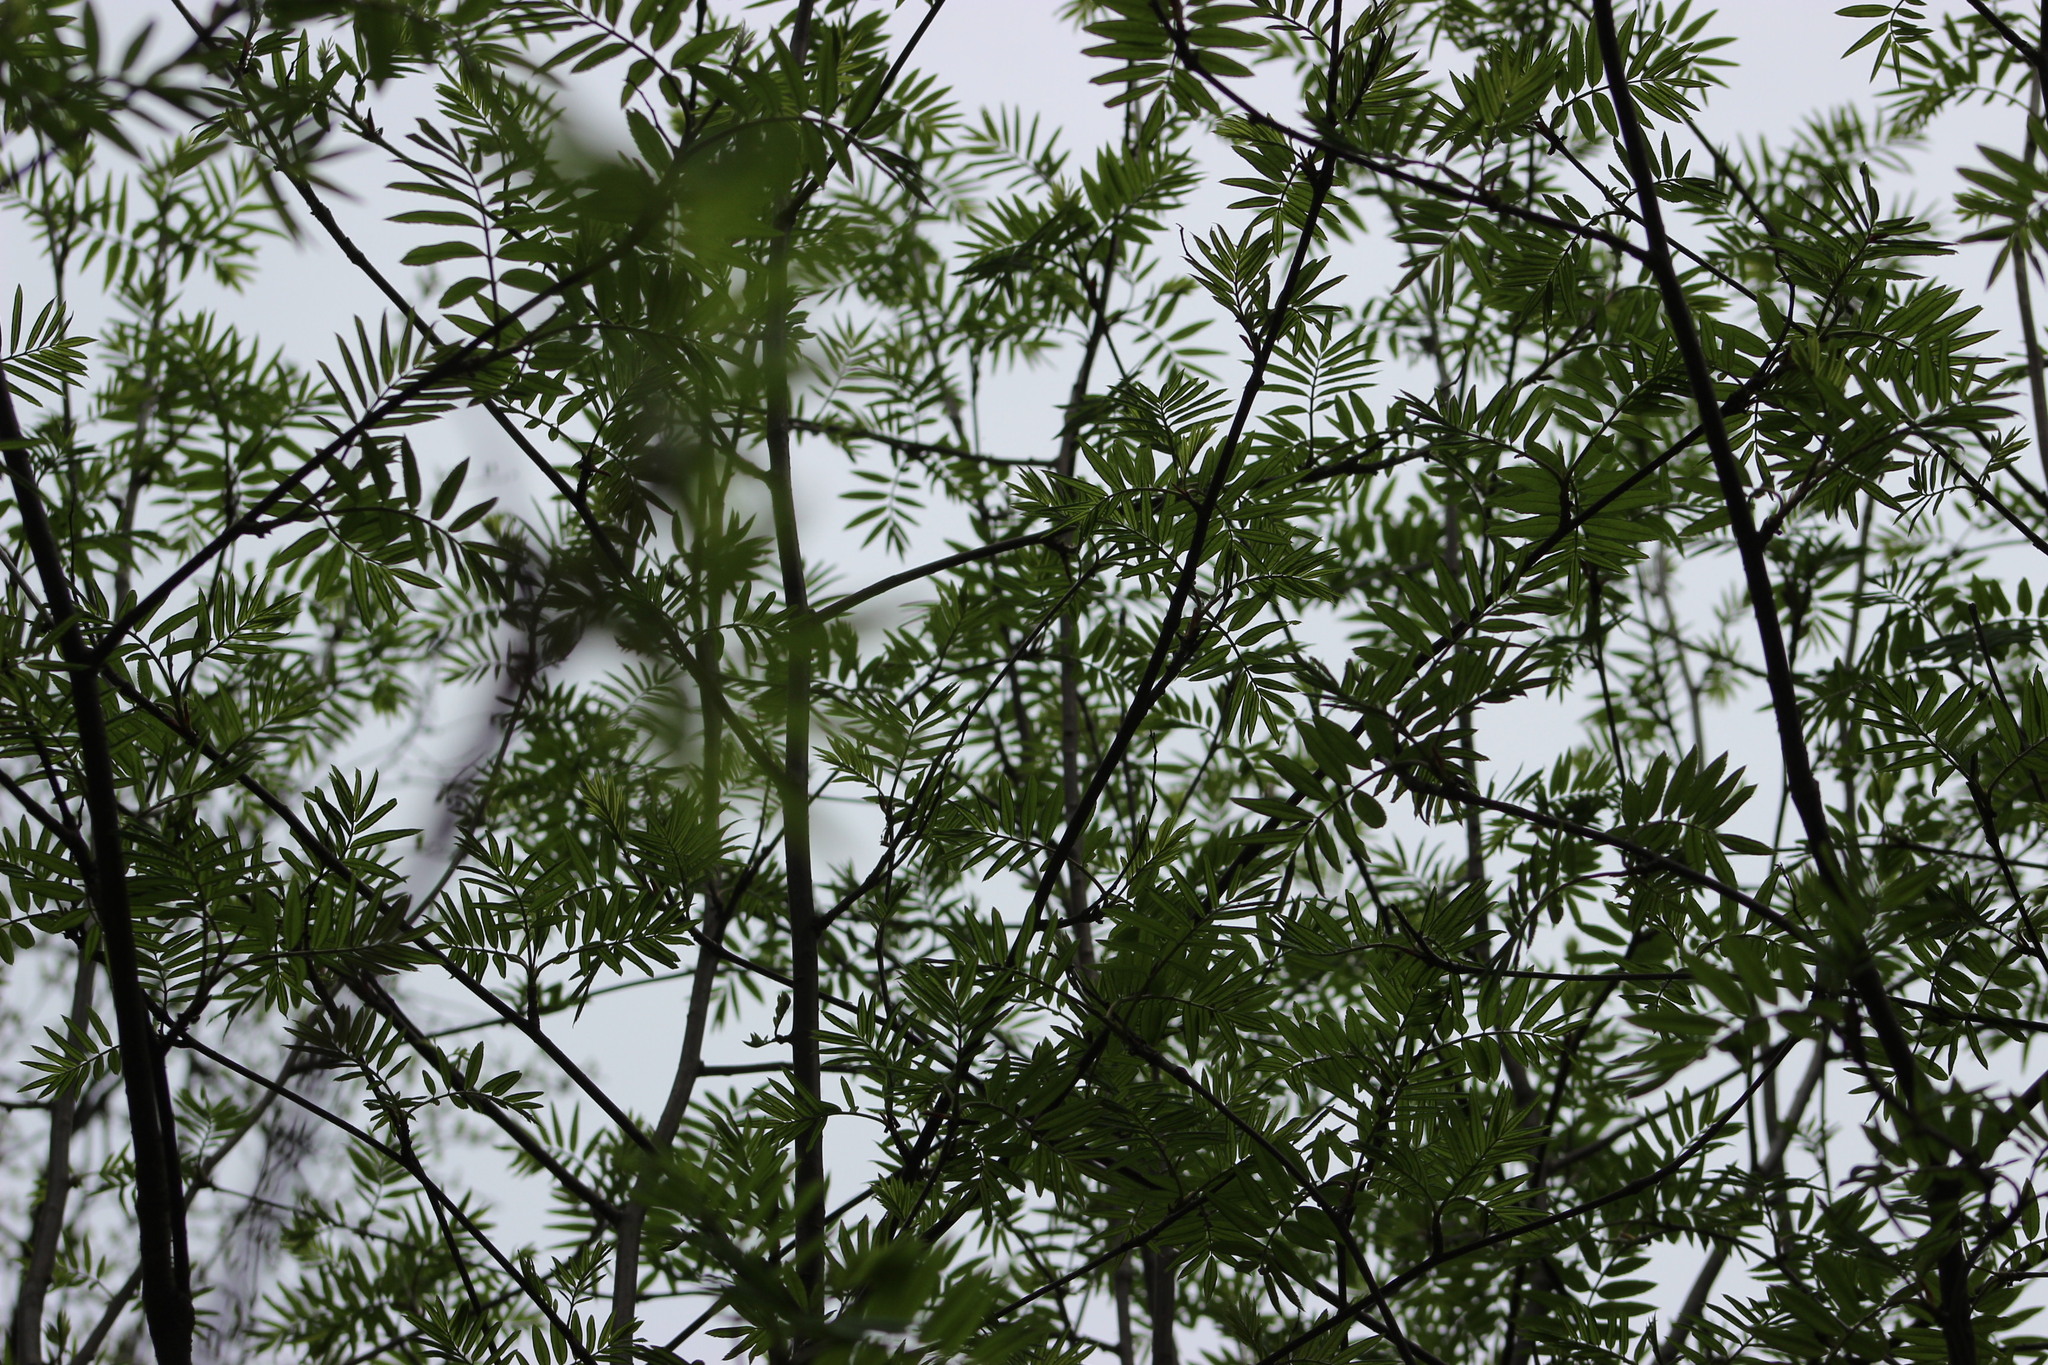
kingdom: Plantae
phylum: Tracheophyta
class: Magnoliopsida
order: Rosales
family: Rosaceae
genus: Sorbus
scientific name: Sorbus aucuparia
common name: Rowan
